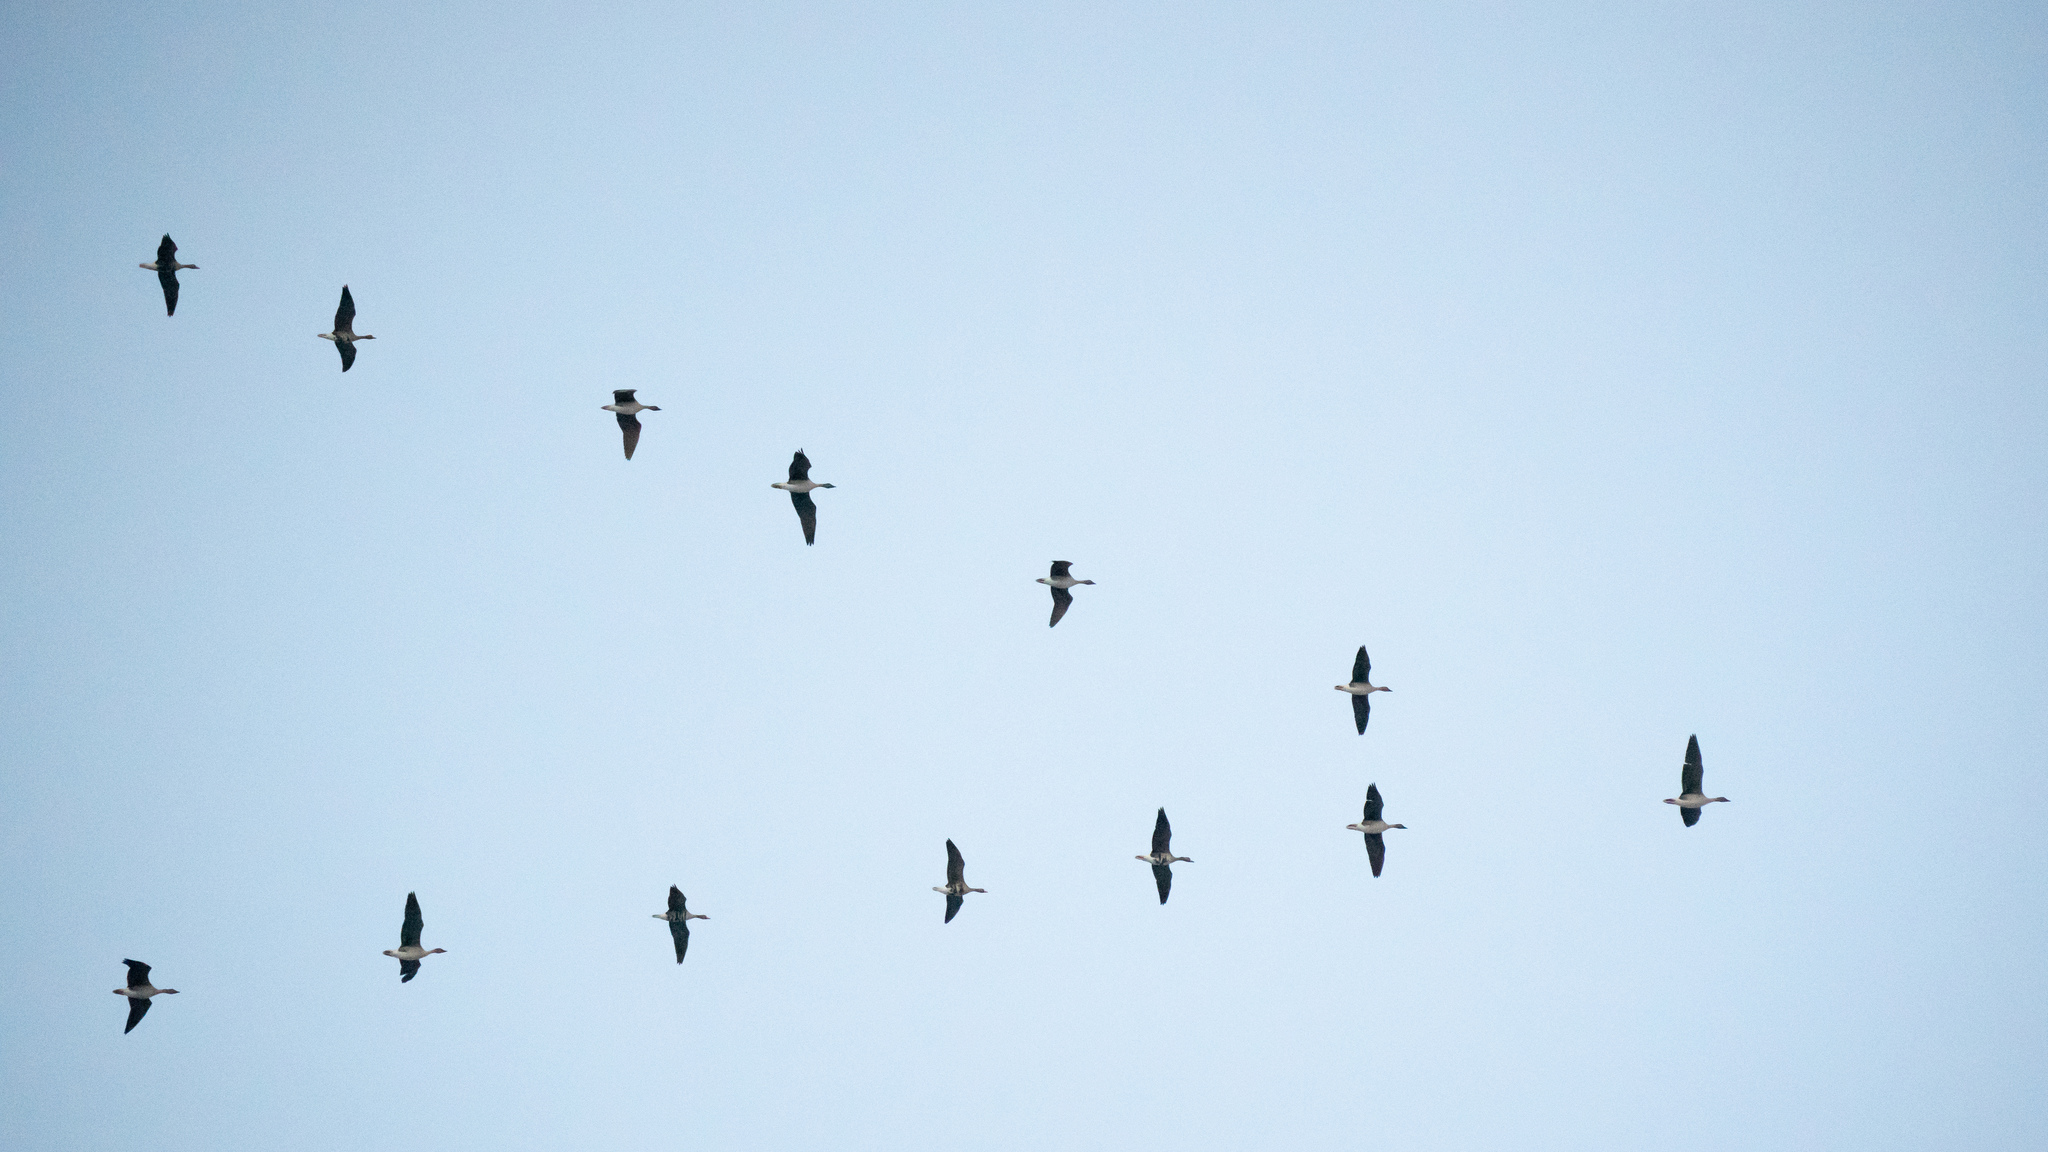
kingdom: Animalia
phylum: Chordata
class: Aves
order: Anseriformes
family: Anatidae
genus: Anser
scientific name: Anser albifrons
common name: Greater white-fronted goose
